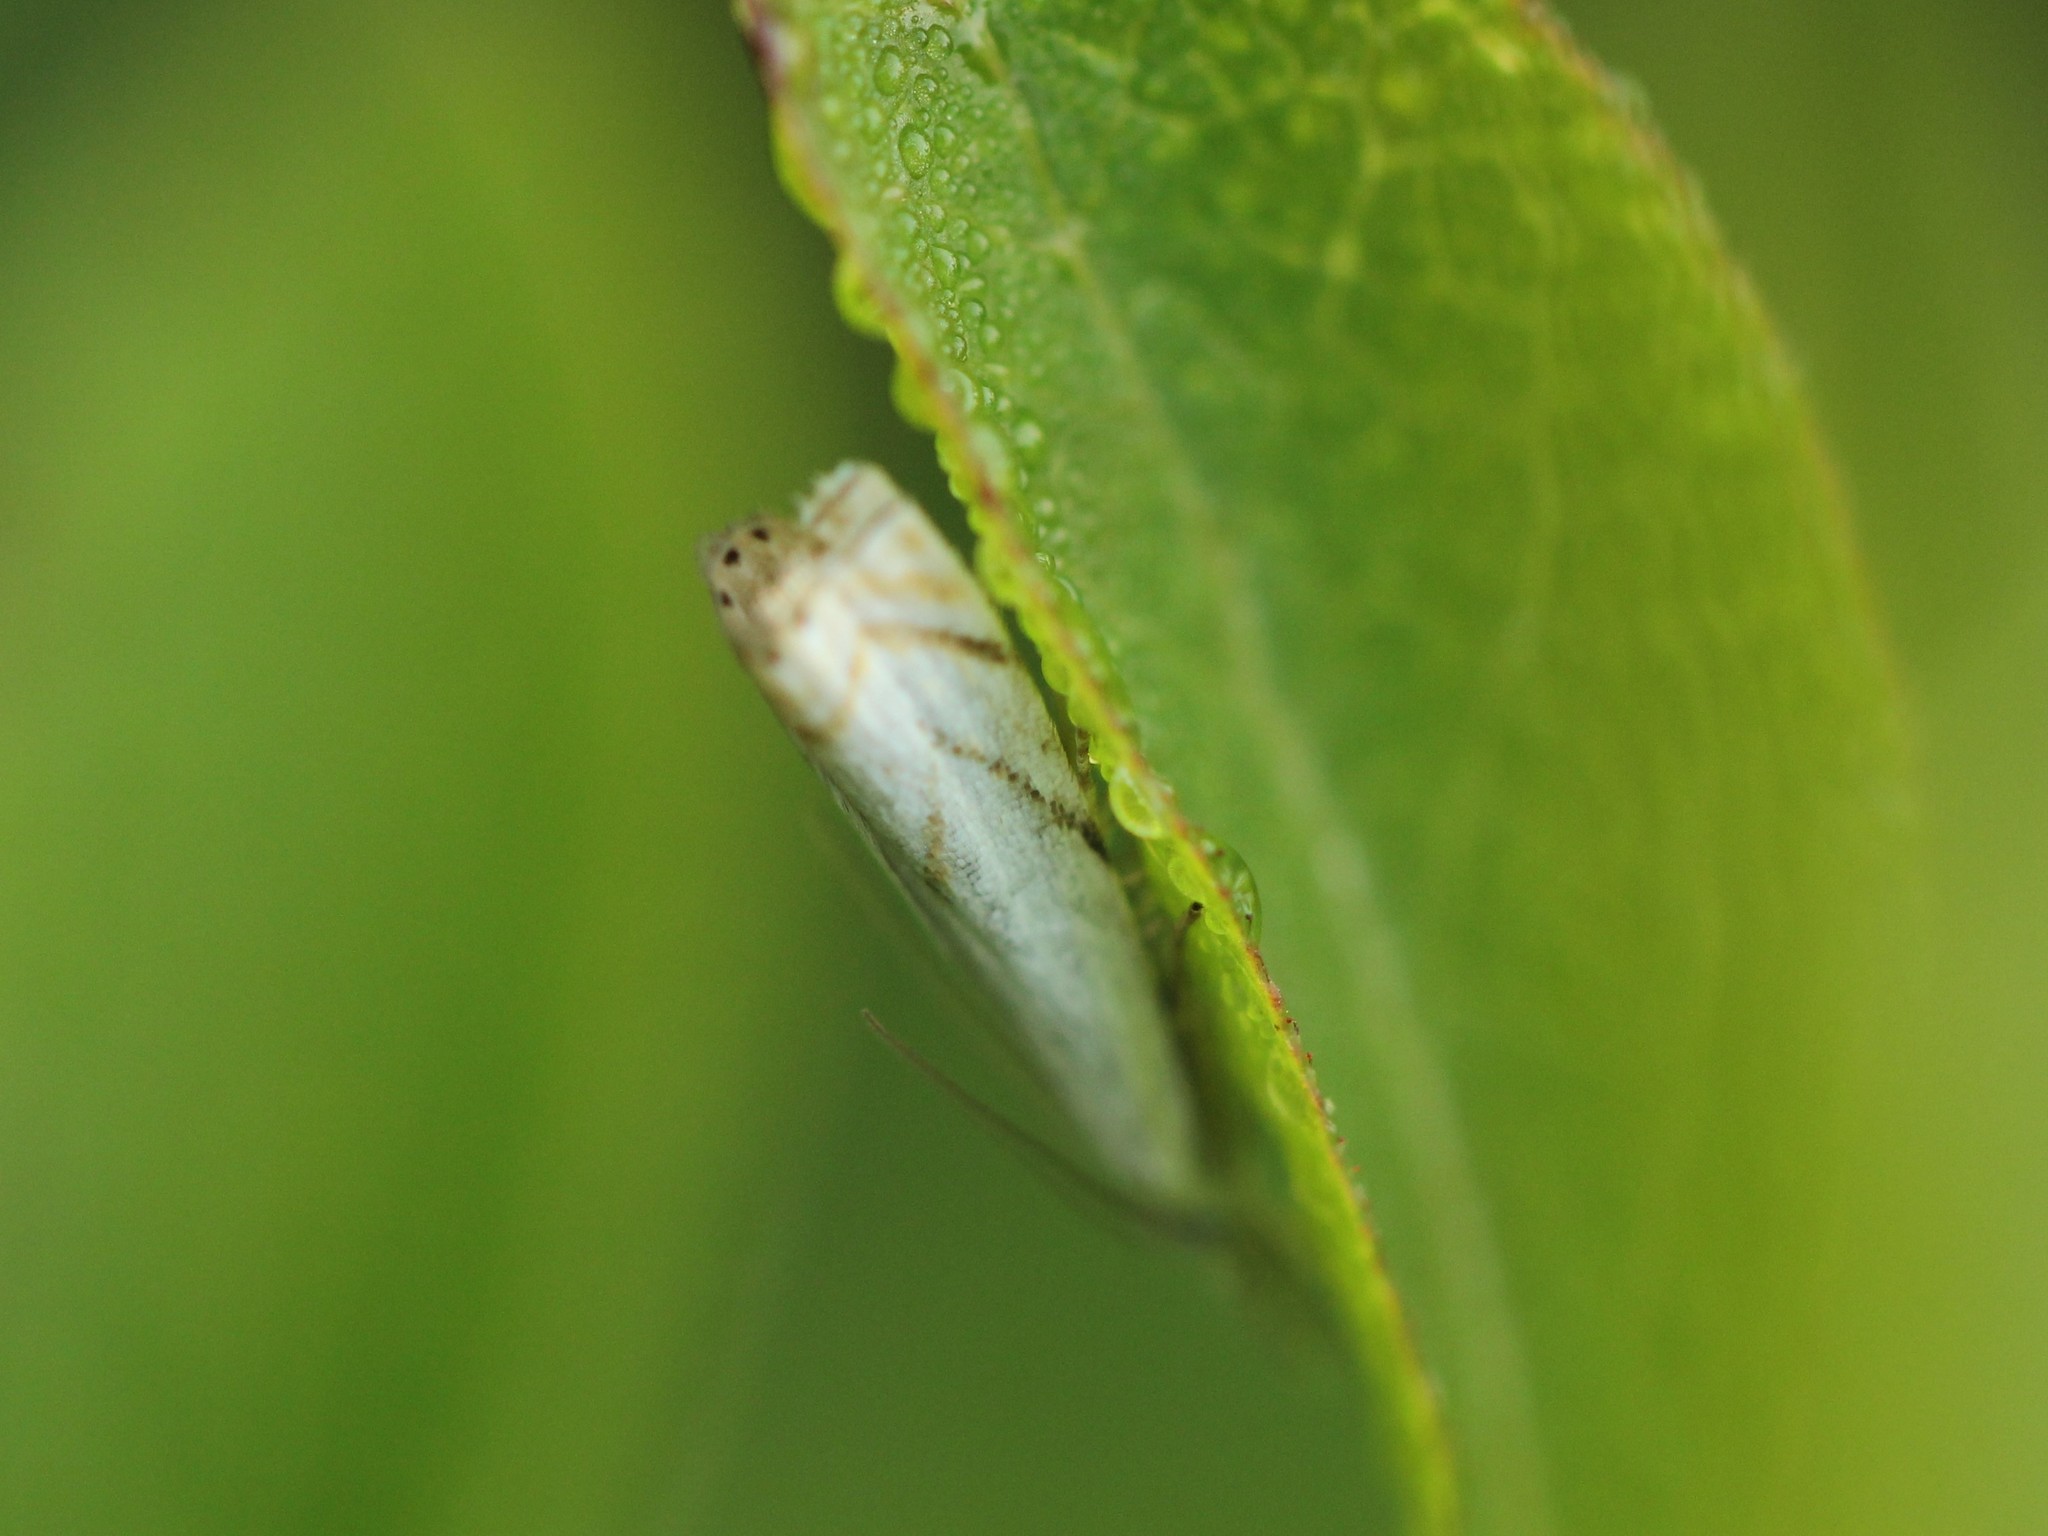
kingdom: Animalia
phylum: Arthropoda
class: Insecta
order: Lepidoptera
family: Crambidae
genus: Crambus
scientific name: Crambus albellus
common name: Small white grass-veneer
